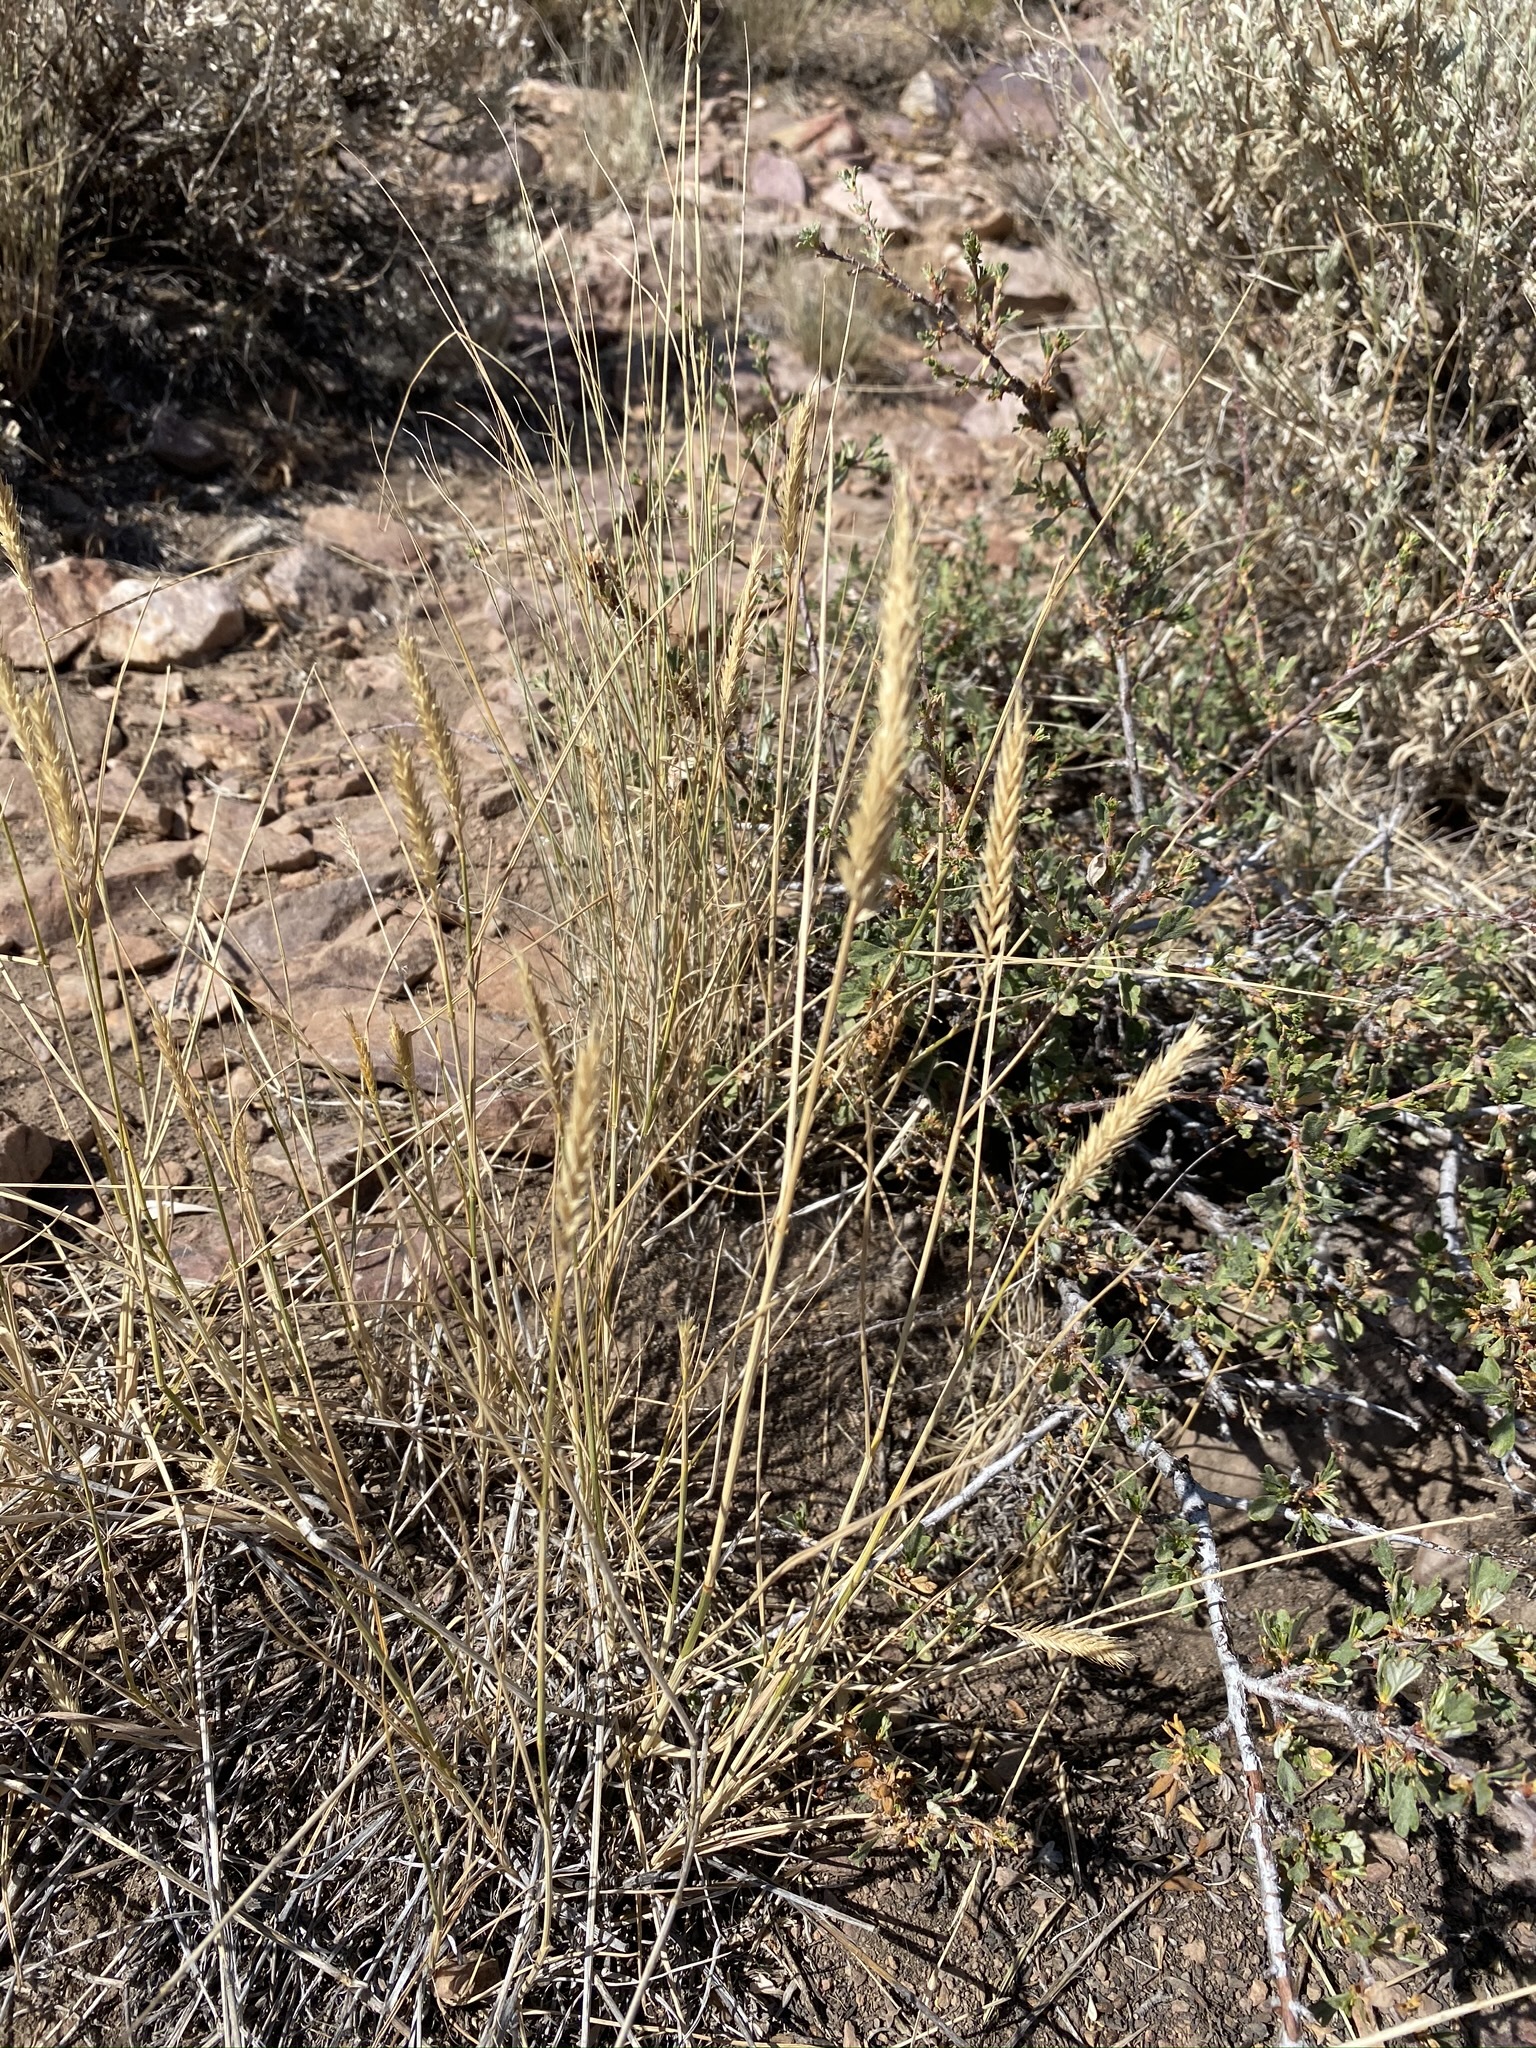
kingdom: Plantae
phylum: Tracheophyta
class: Liliopsida
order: Poales
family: Poaceae
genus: Agropyron
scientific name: Agropyron cristatum
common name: Crested wheatgrass
